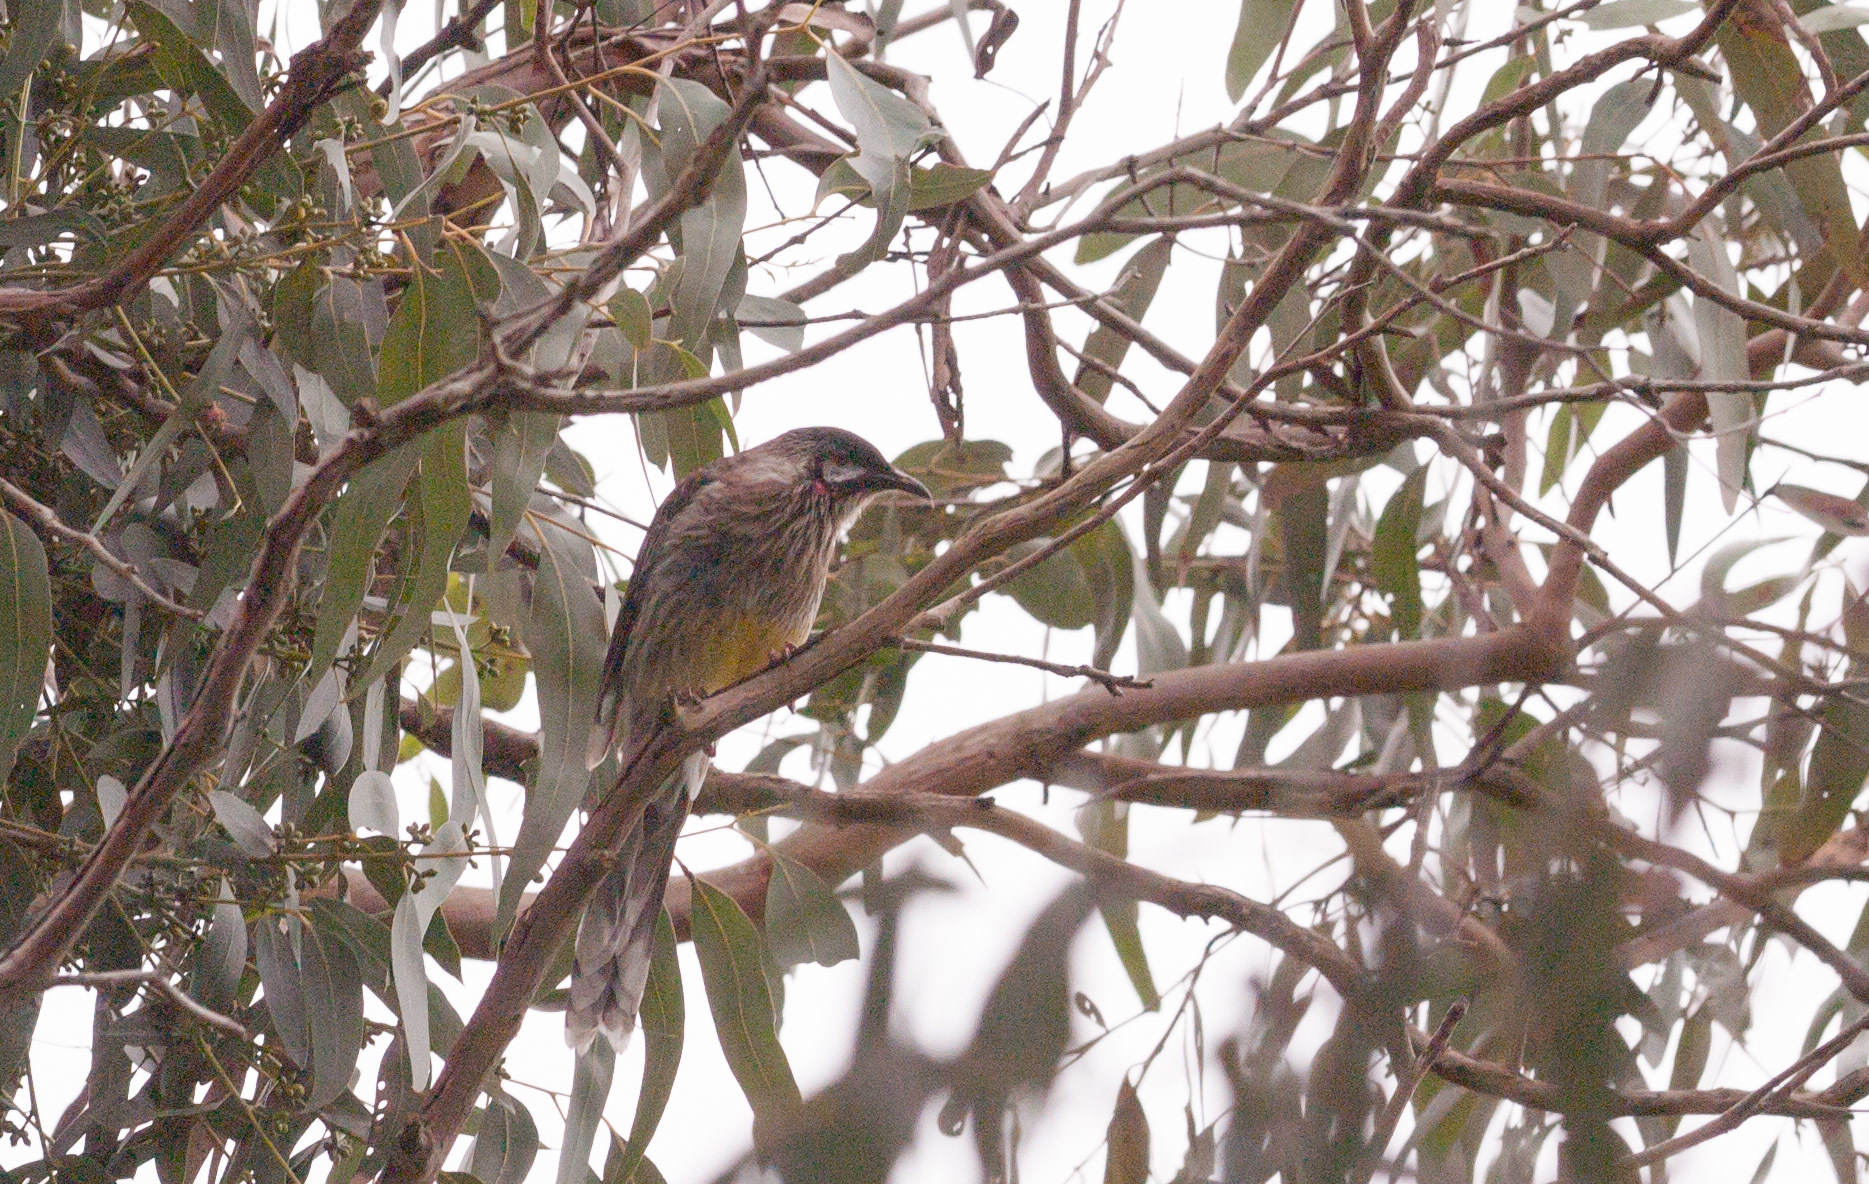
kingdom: Animalia
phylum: Chordata
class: Aves
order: Passeriformes
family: Meliphagidae
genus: Anthochaera
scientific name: Anthochaera carunculata
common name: Red wattlebird
